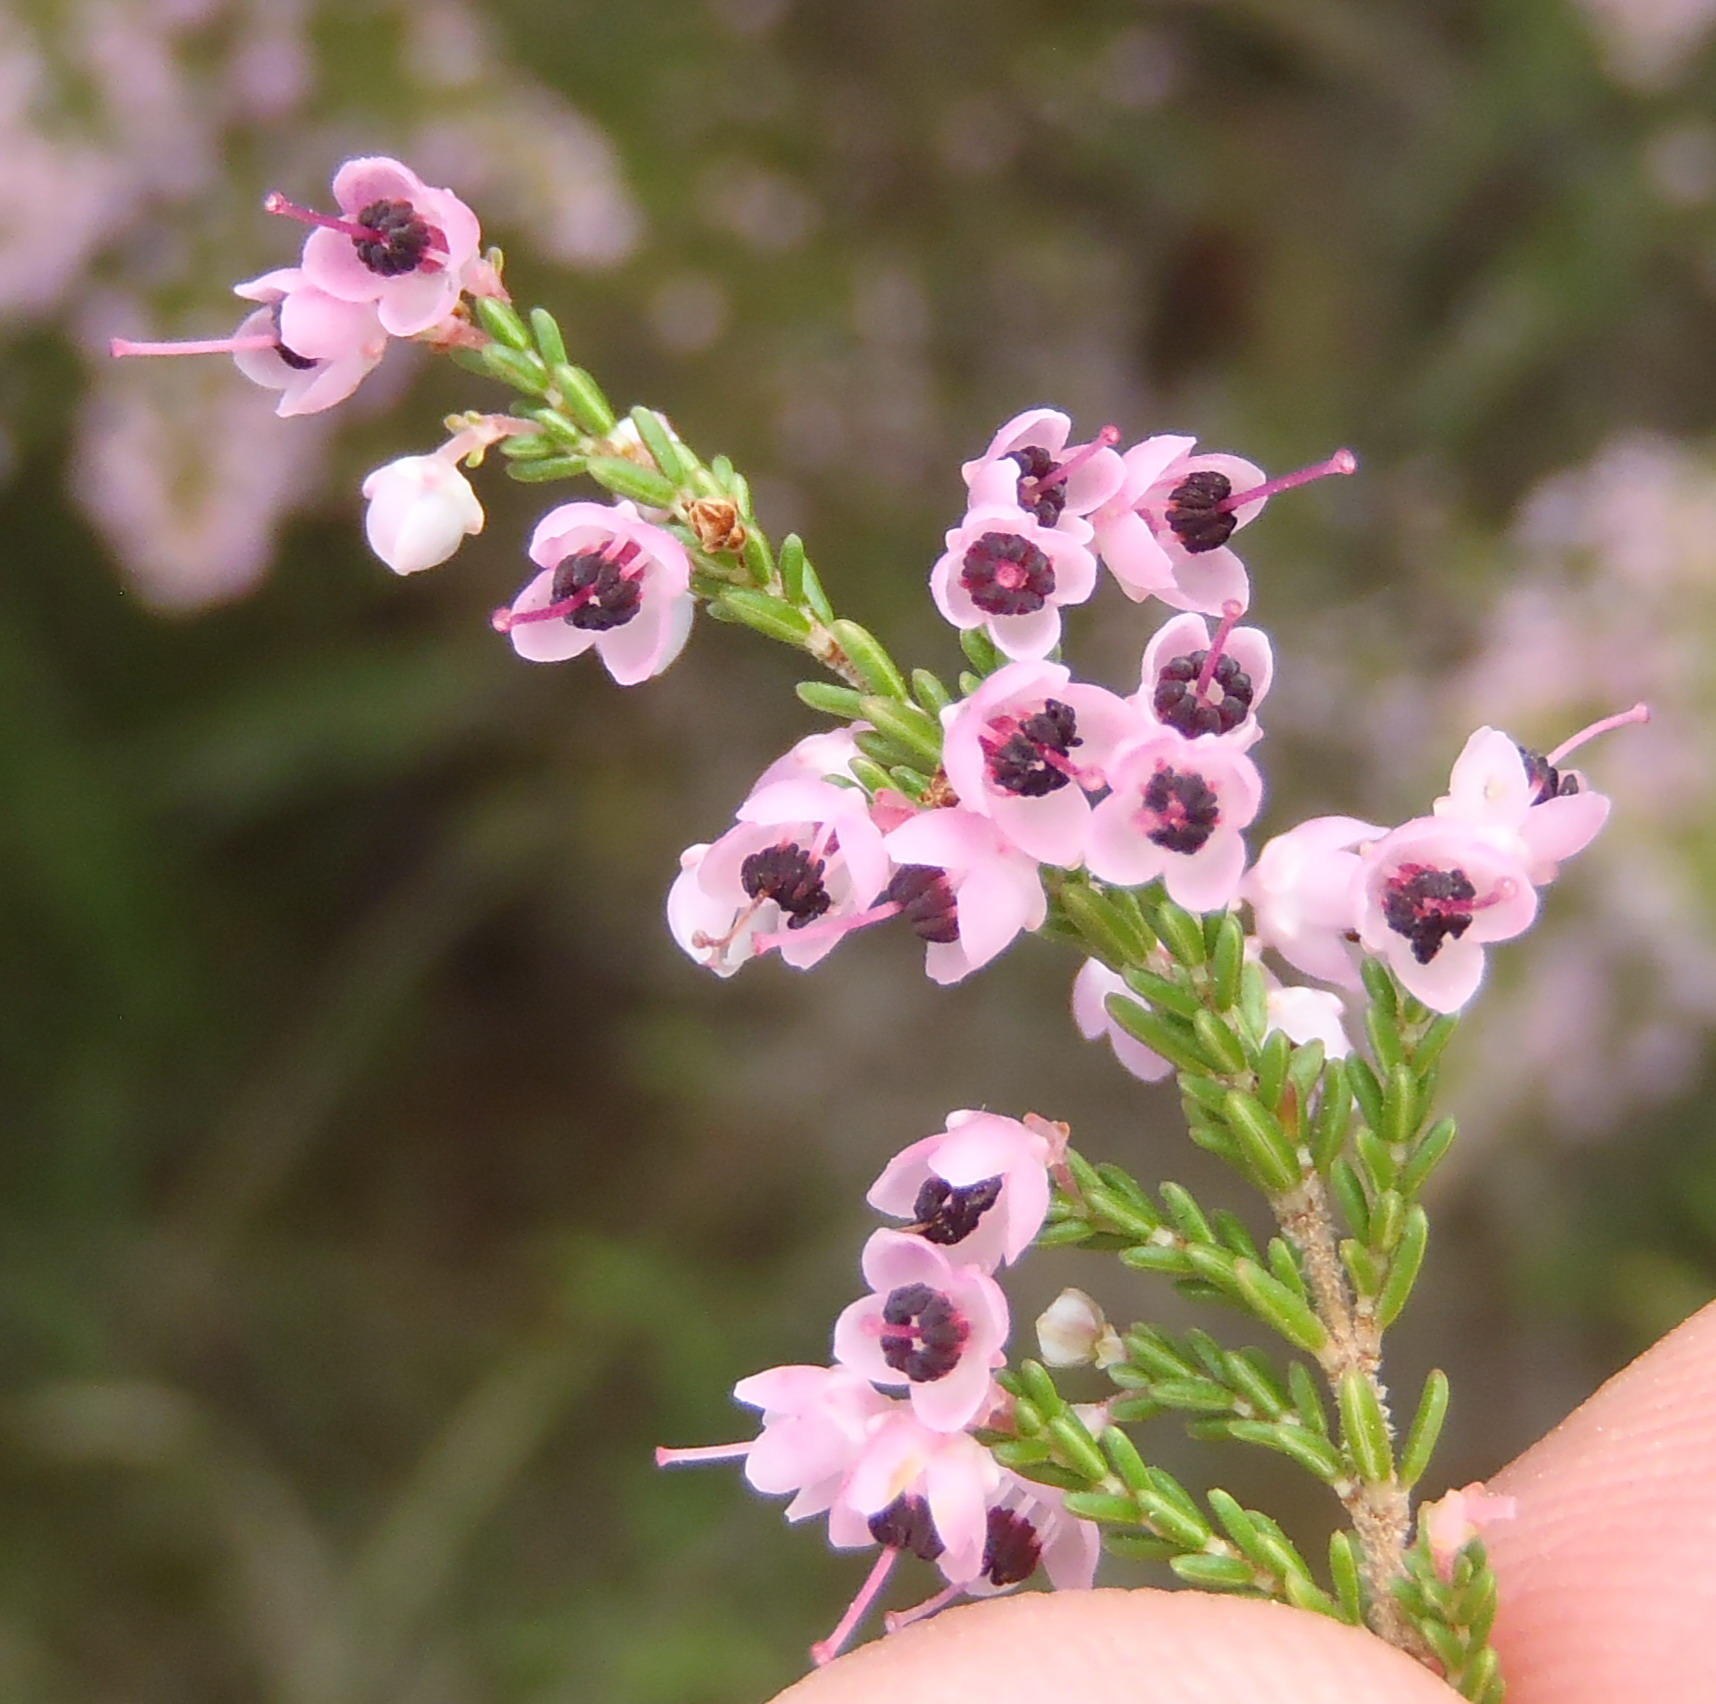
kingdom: Plantae
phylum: Tracheophyta
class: Magnoliopsida
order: Ericales
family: Ericaceae
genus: Erica
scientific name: Erica canaliculata
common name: Hairy grey heather
